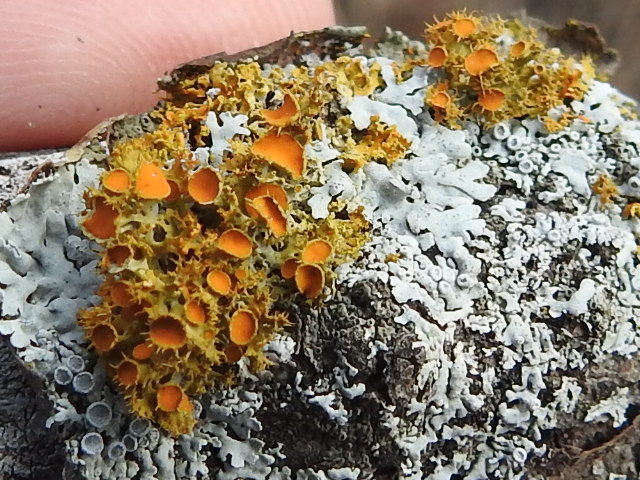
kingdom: Fungi
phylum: Ascomycota
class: Lecanoromycetes
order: Teloschistales
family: Teloschistaceae
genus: Niorma
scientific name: Niorma chrysophthalma
